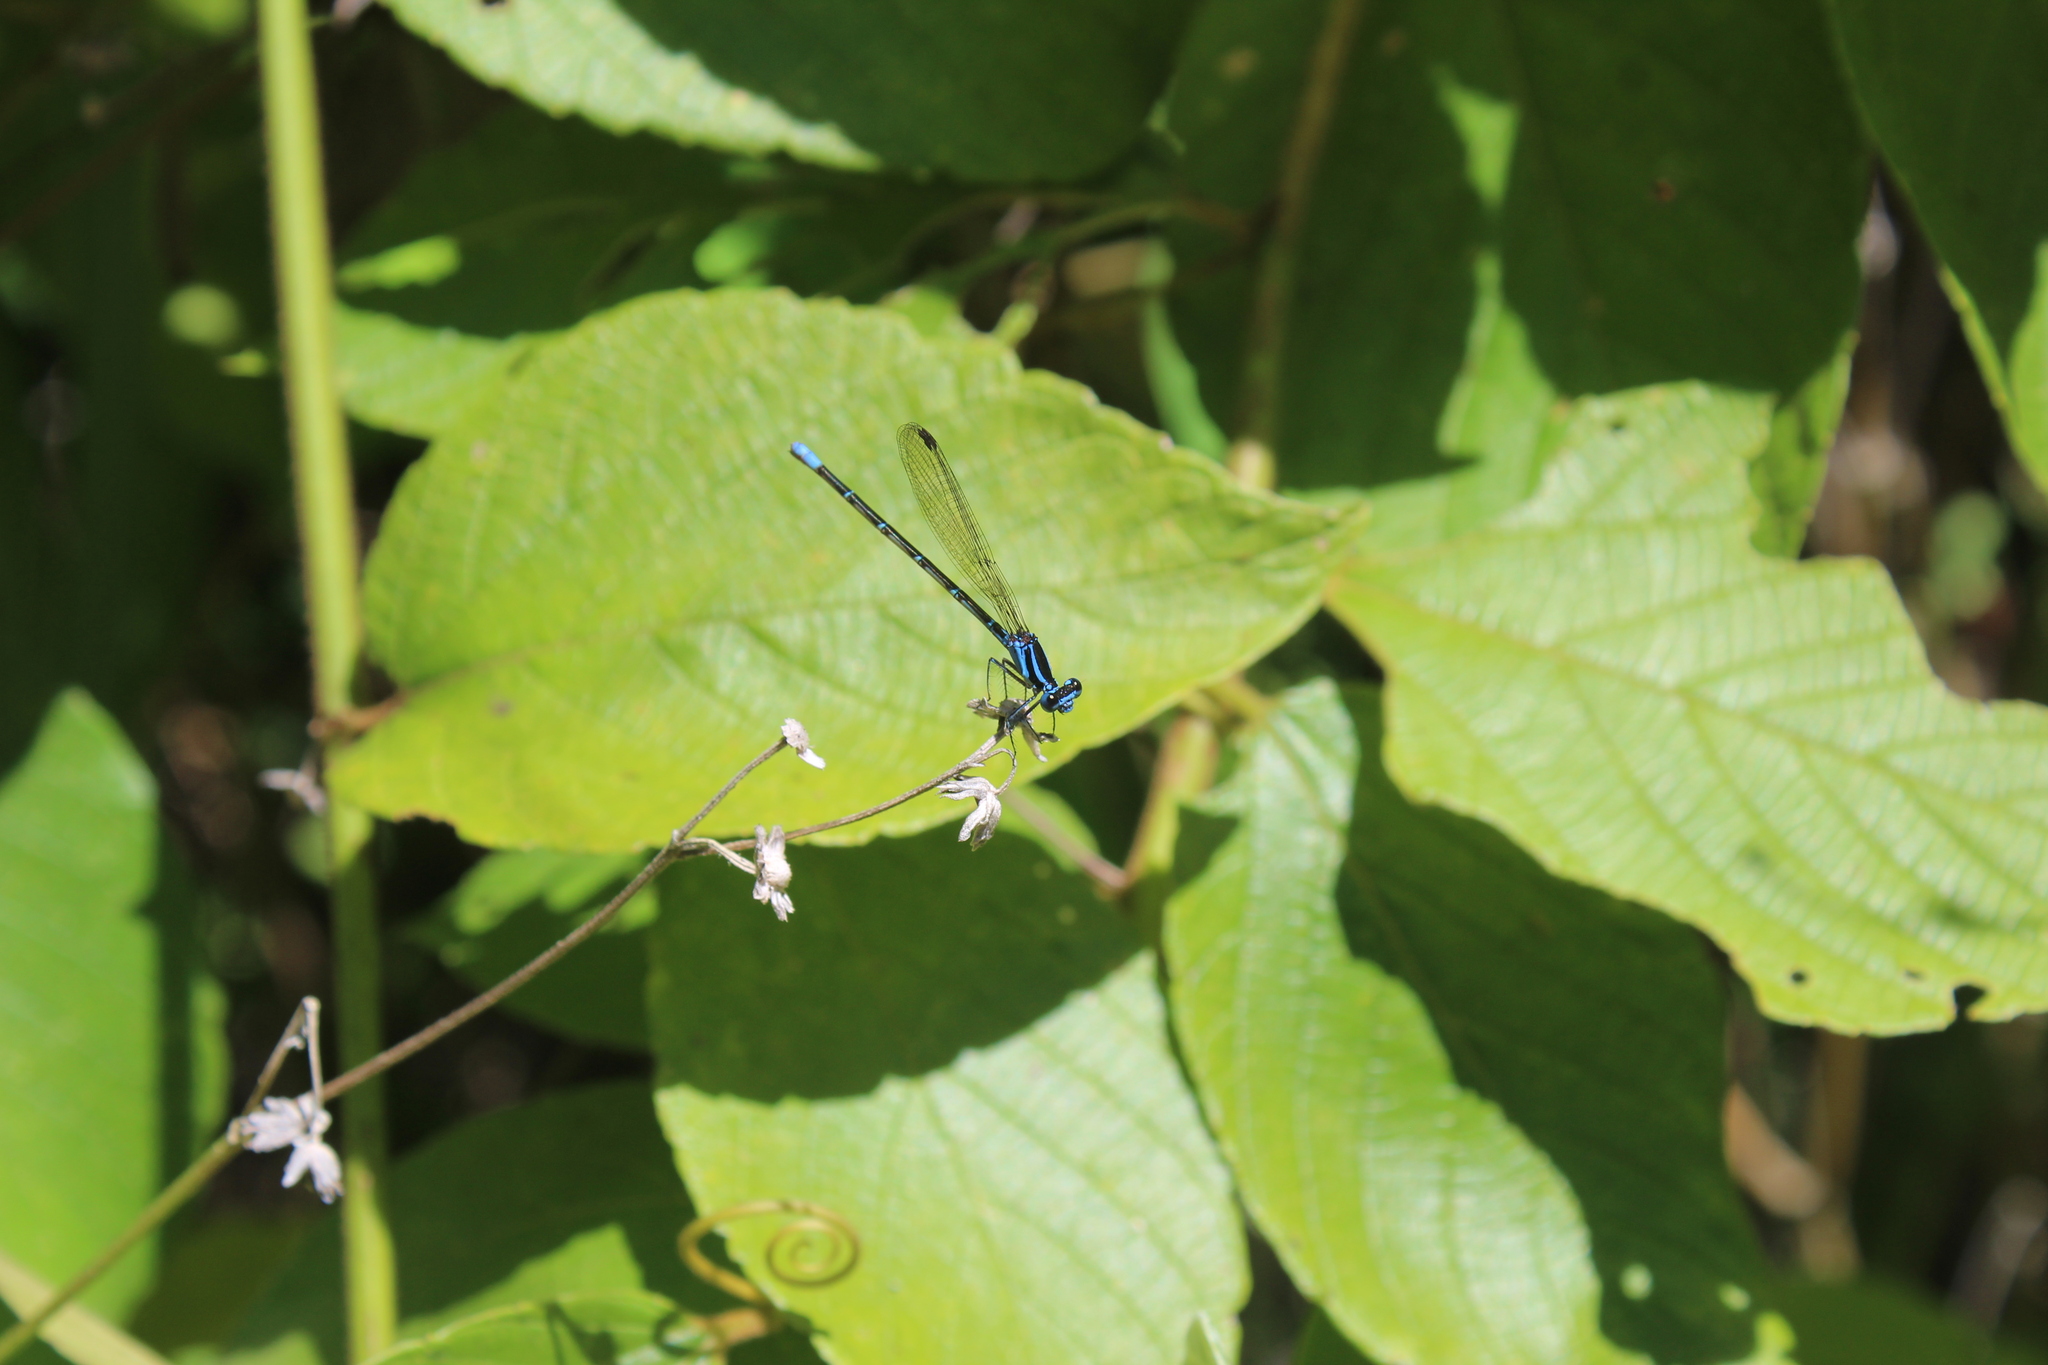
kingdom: Animalia
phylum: Arthropoda
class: Insecta
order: Odonata
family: Coenagrionidae
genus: Argia
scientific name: Argia gaumeri
